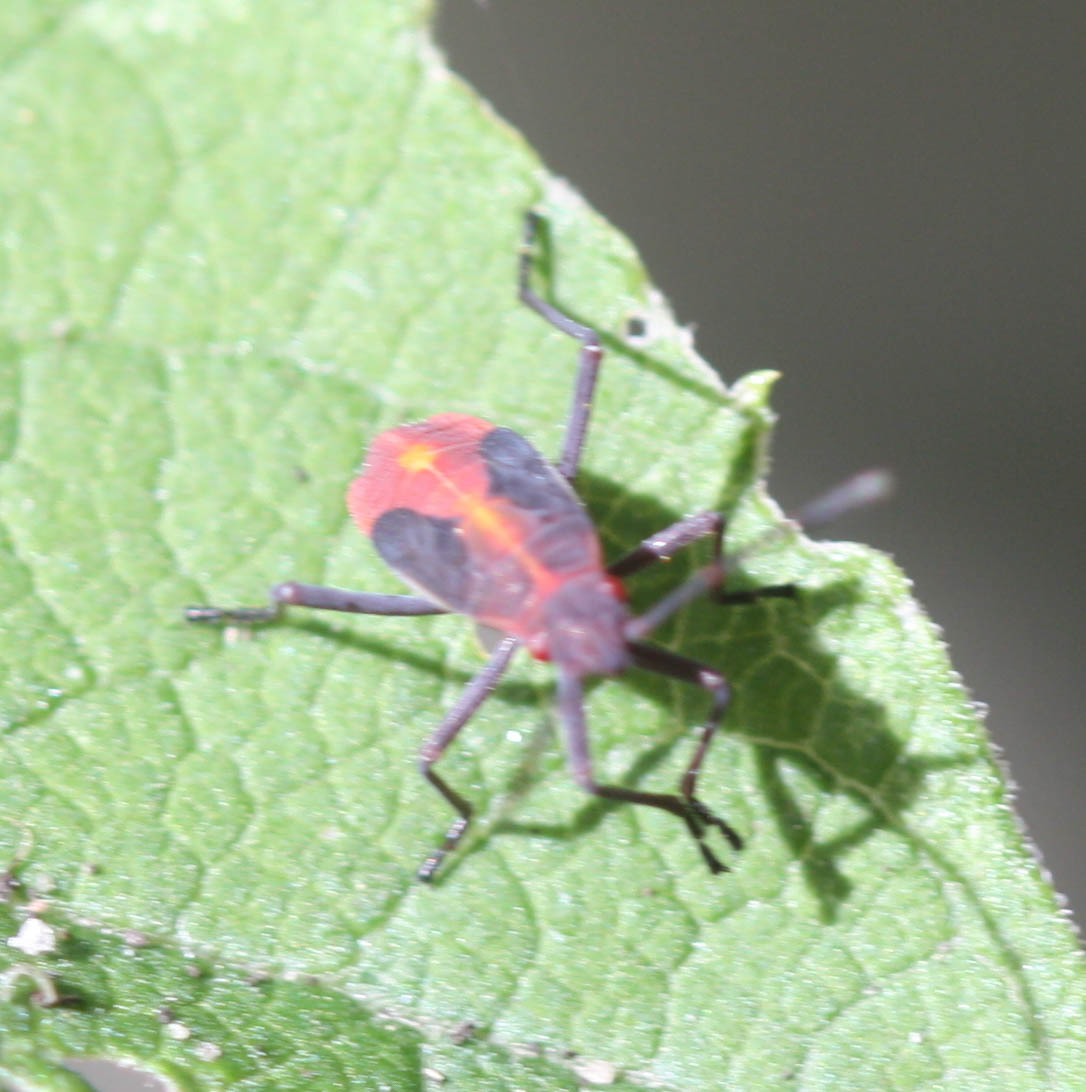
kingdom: Animalia
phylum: Arthropoda
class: Insecta
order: Hemiptera
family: Rhopalidae
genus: Boisea
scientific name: Boisea trivittata
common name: Boxelder bug
